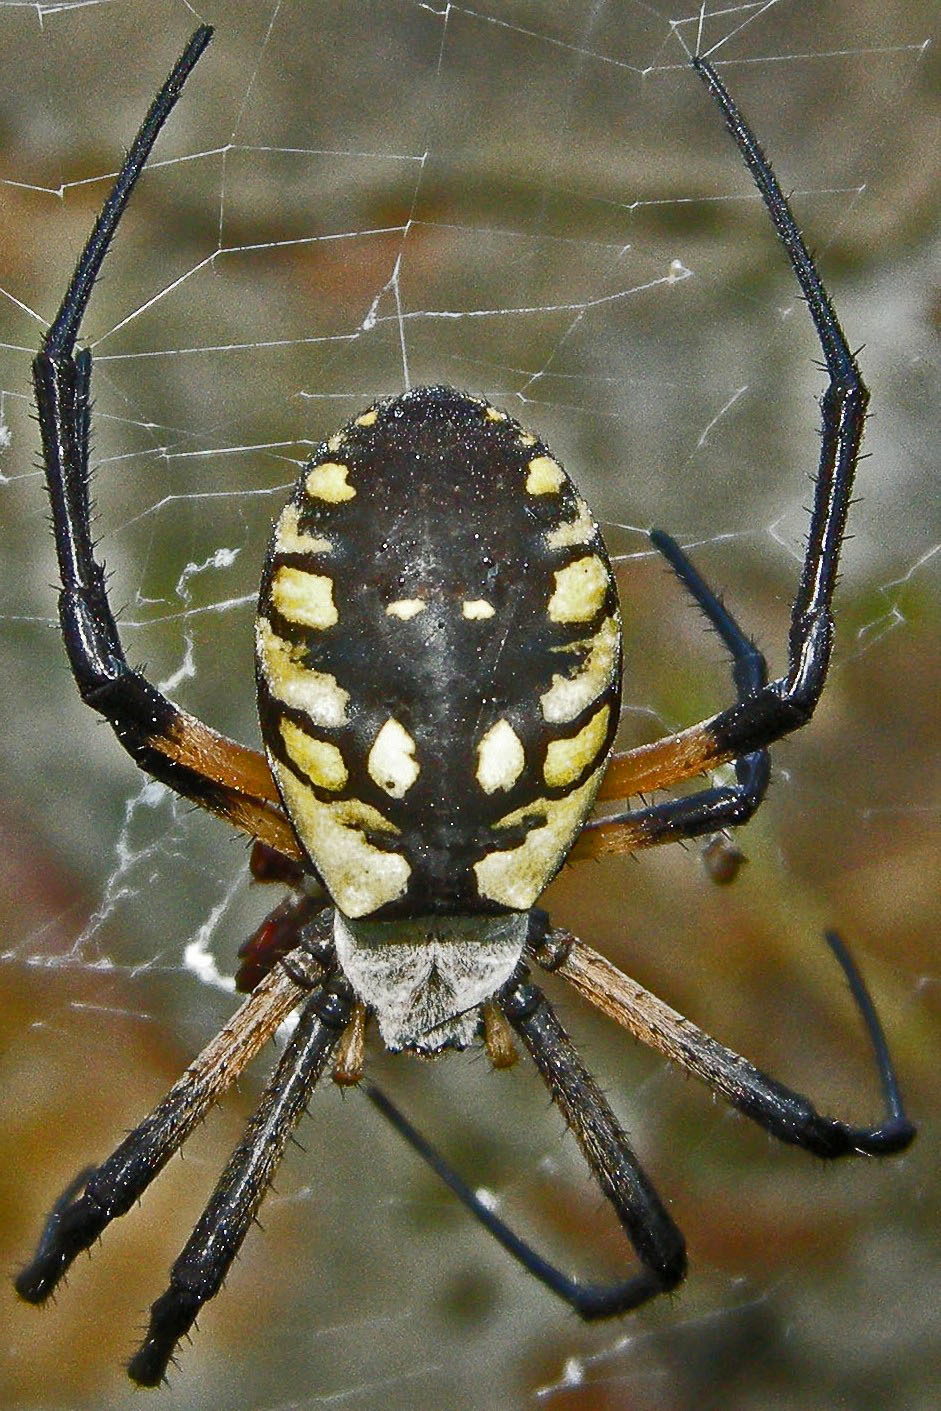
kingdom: Animalia
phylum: Arthropoda
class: Arachnida
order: Araneae
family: Araneidae
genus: Argiope
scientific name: Argiope aurantia
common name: Orb weavers
